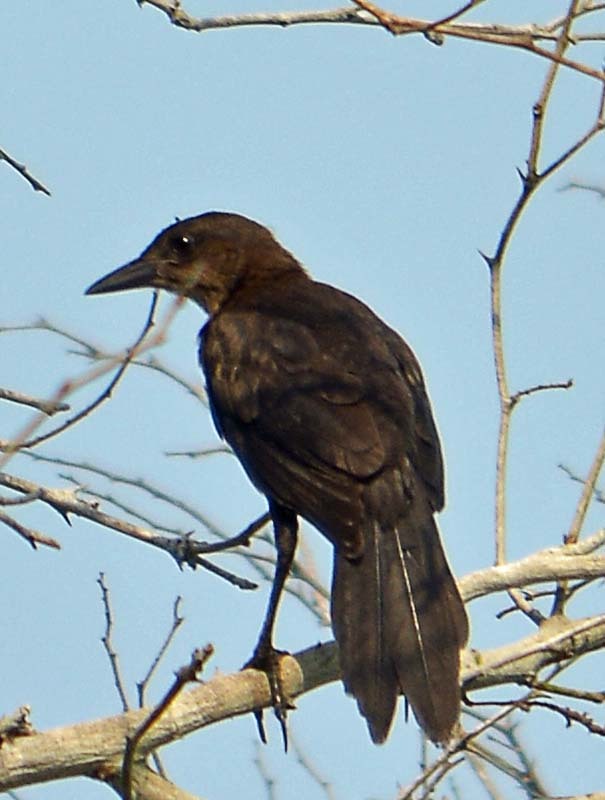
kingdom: Animalia
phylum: Chordata
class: Aves
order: Passeriformes
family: Icteridae
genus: Quiscalus
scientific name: Quiscalus mexicanus
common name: Great-tailed grackle
